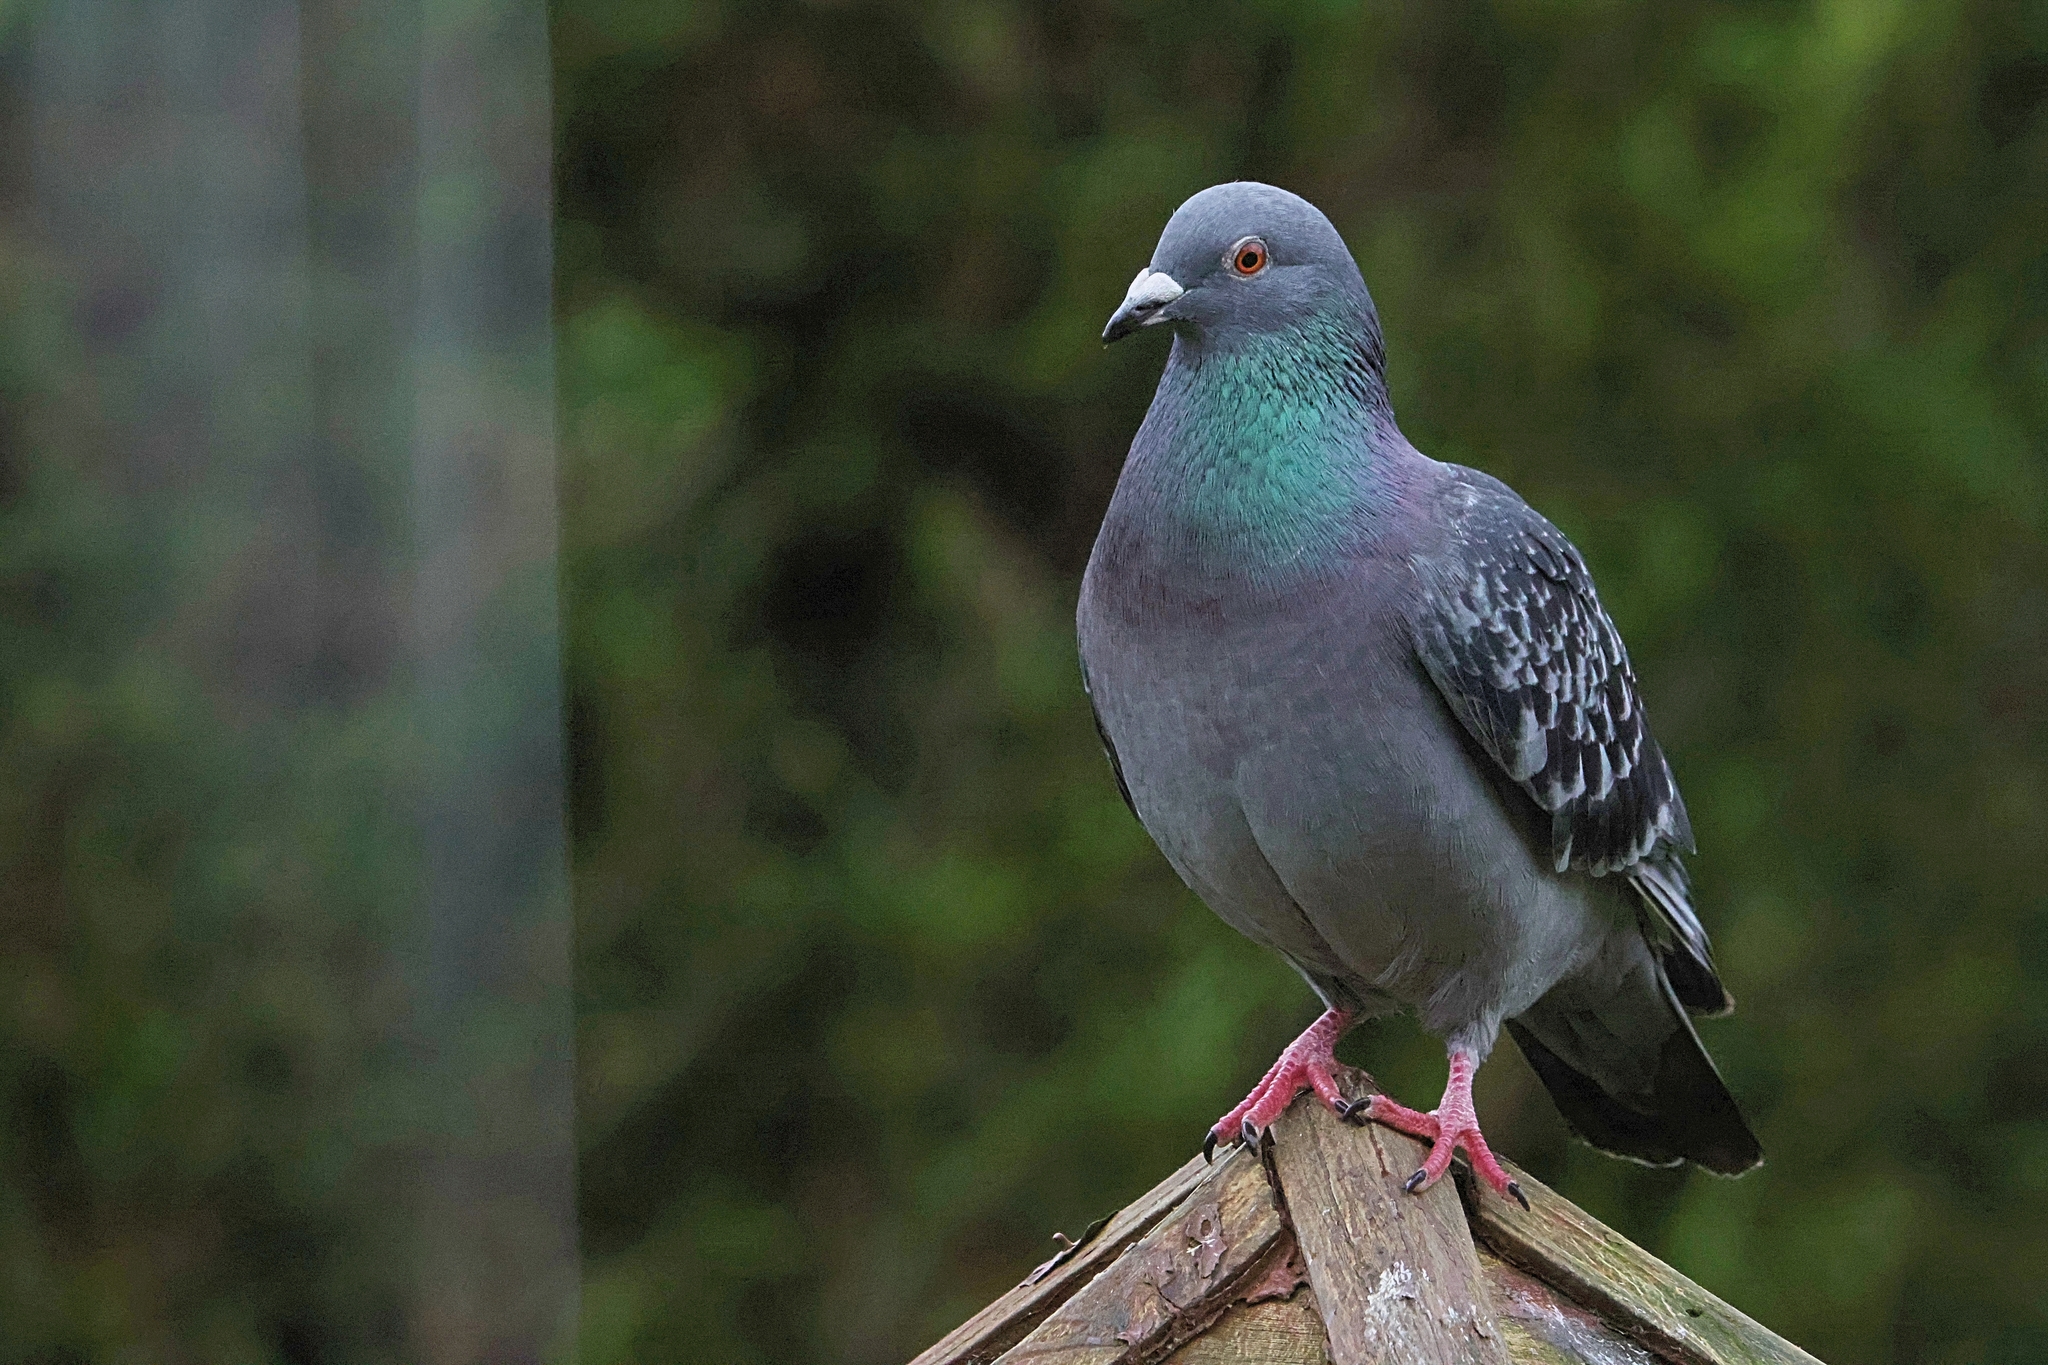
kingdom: Animalia
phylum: Chordata
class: Aves
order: Columbiformes
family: Columbidae
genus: Columba
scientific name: Columba livia
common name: Rock pigeon
